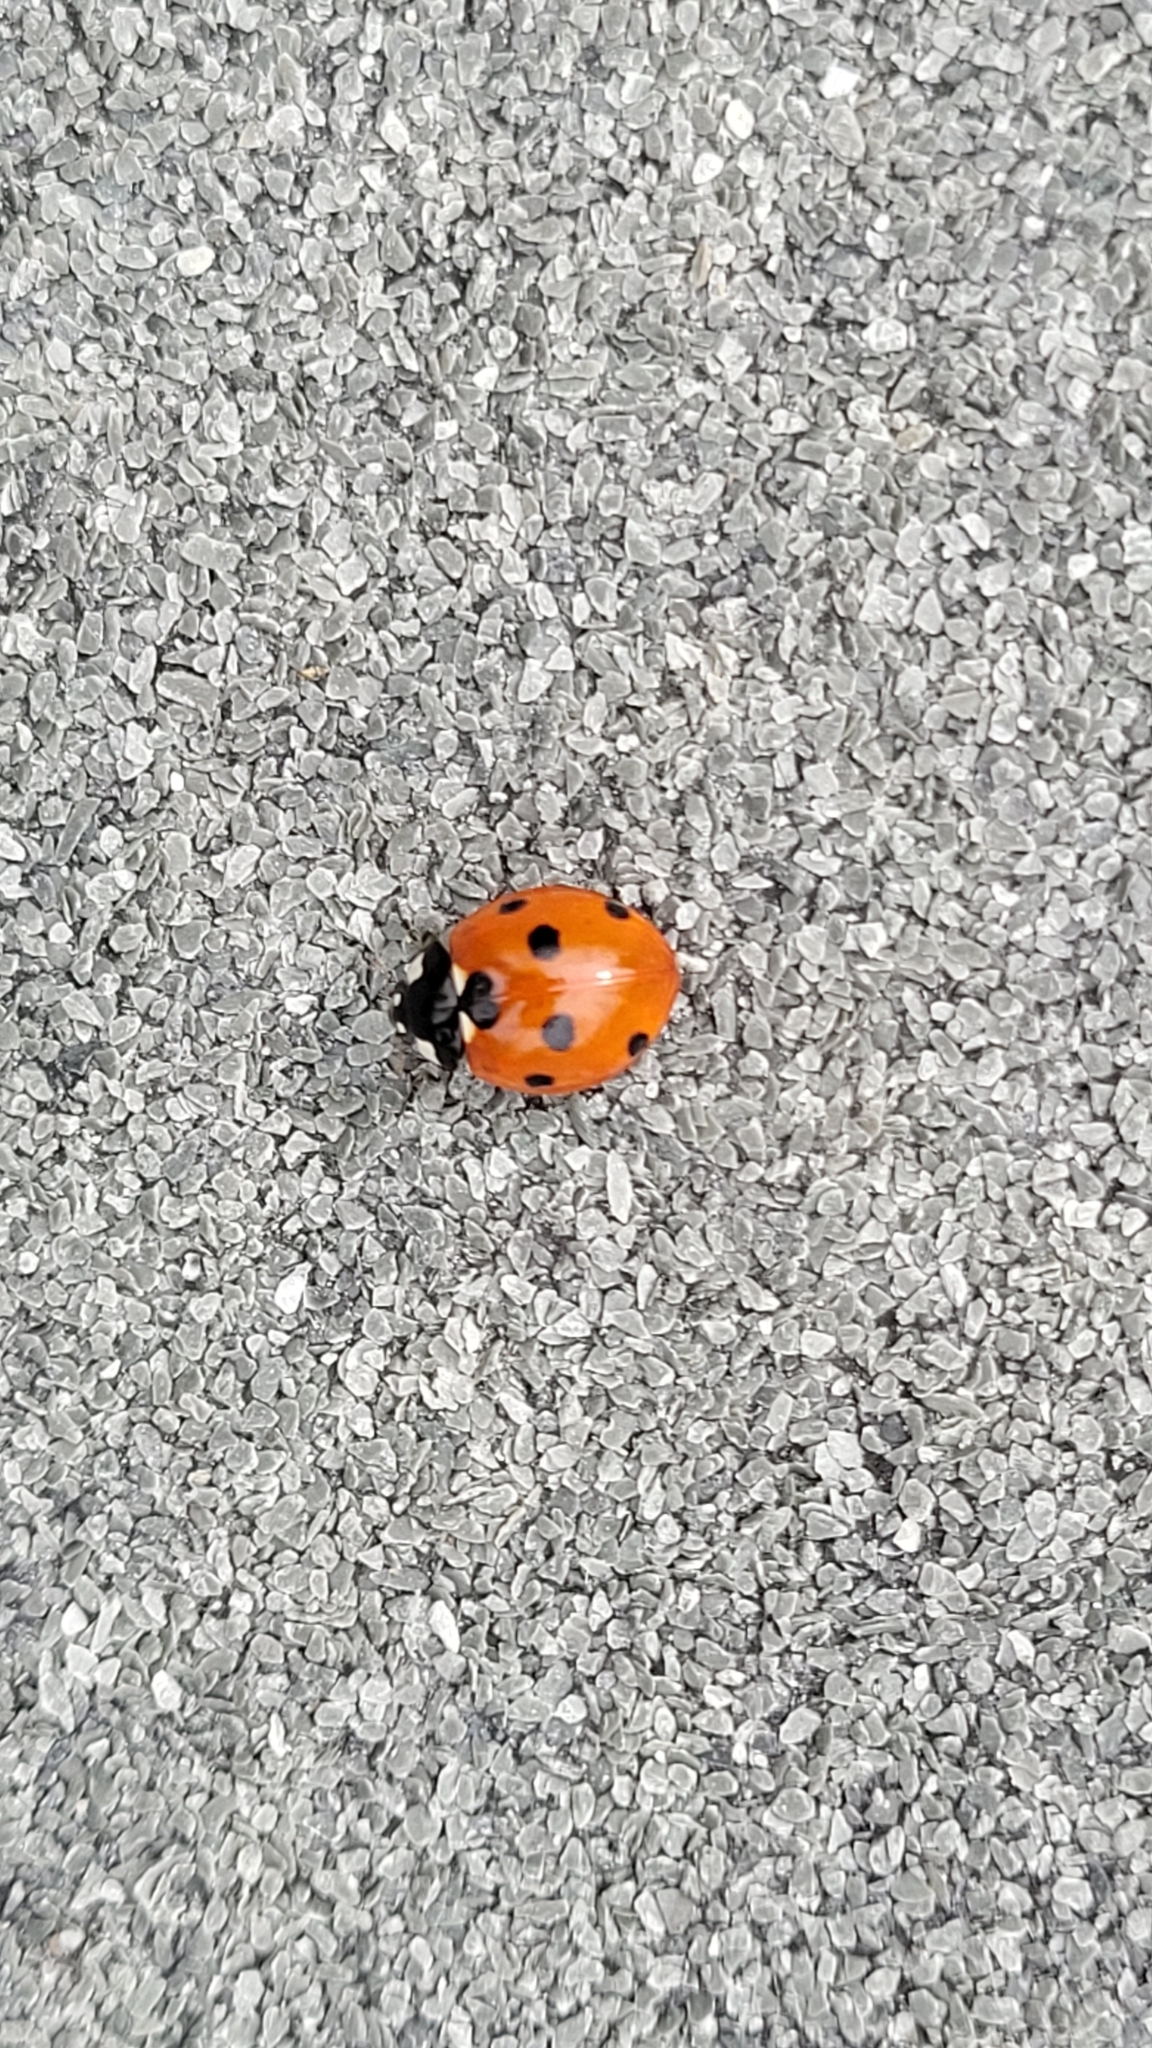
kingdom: Animalia
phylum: Arthropoda
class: Insecta
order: Coleoptera
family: Coccinellidae
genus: Coccinella
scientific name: Coccinella septempunctata
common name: Sevenspotted lady beetle
